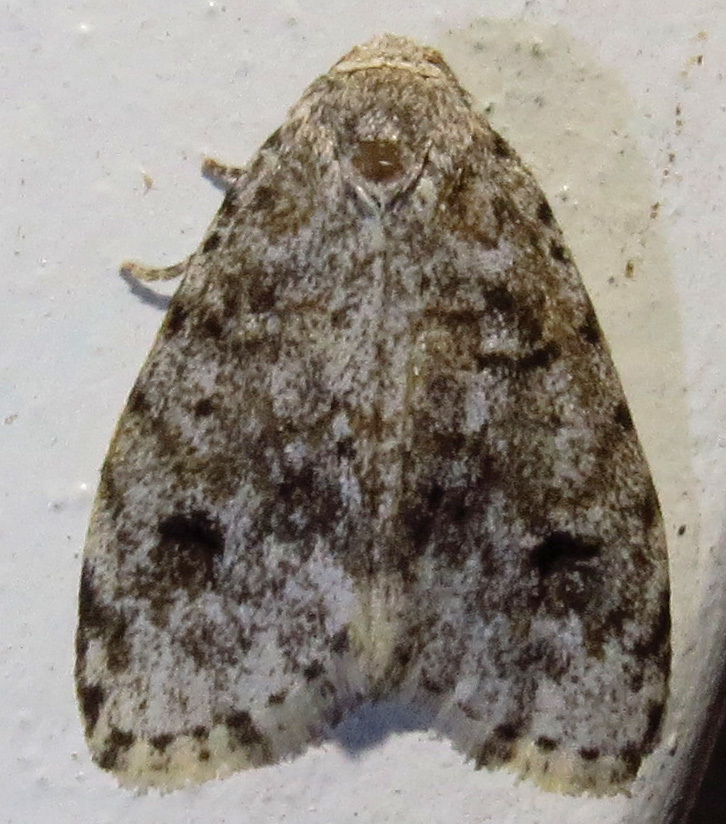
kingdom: Animalia
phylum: Arthropoda
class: Insecta
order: Lepidoptera
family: Erebidae
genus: Clemensia
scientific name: Clemensia albata
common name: Little white lichen moth
